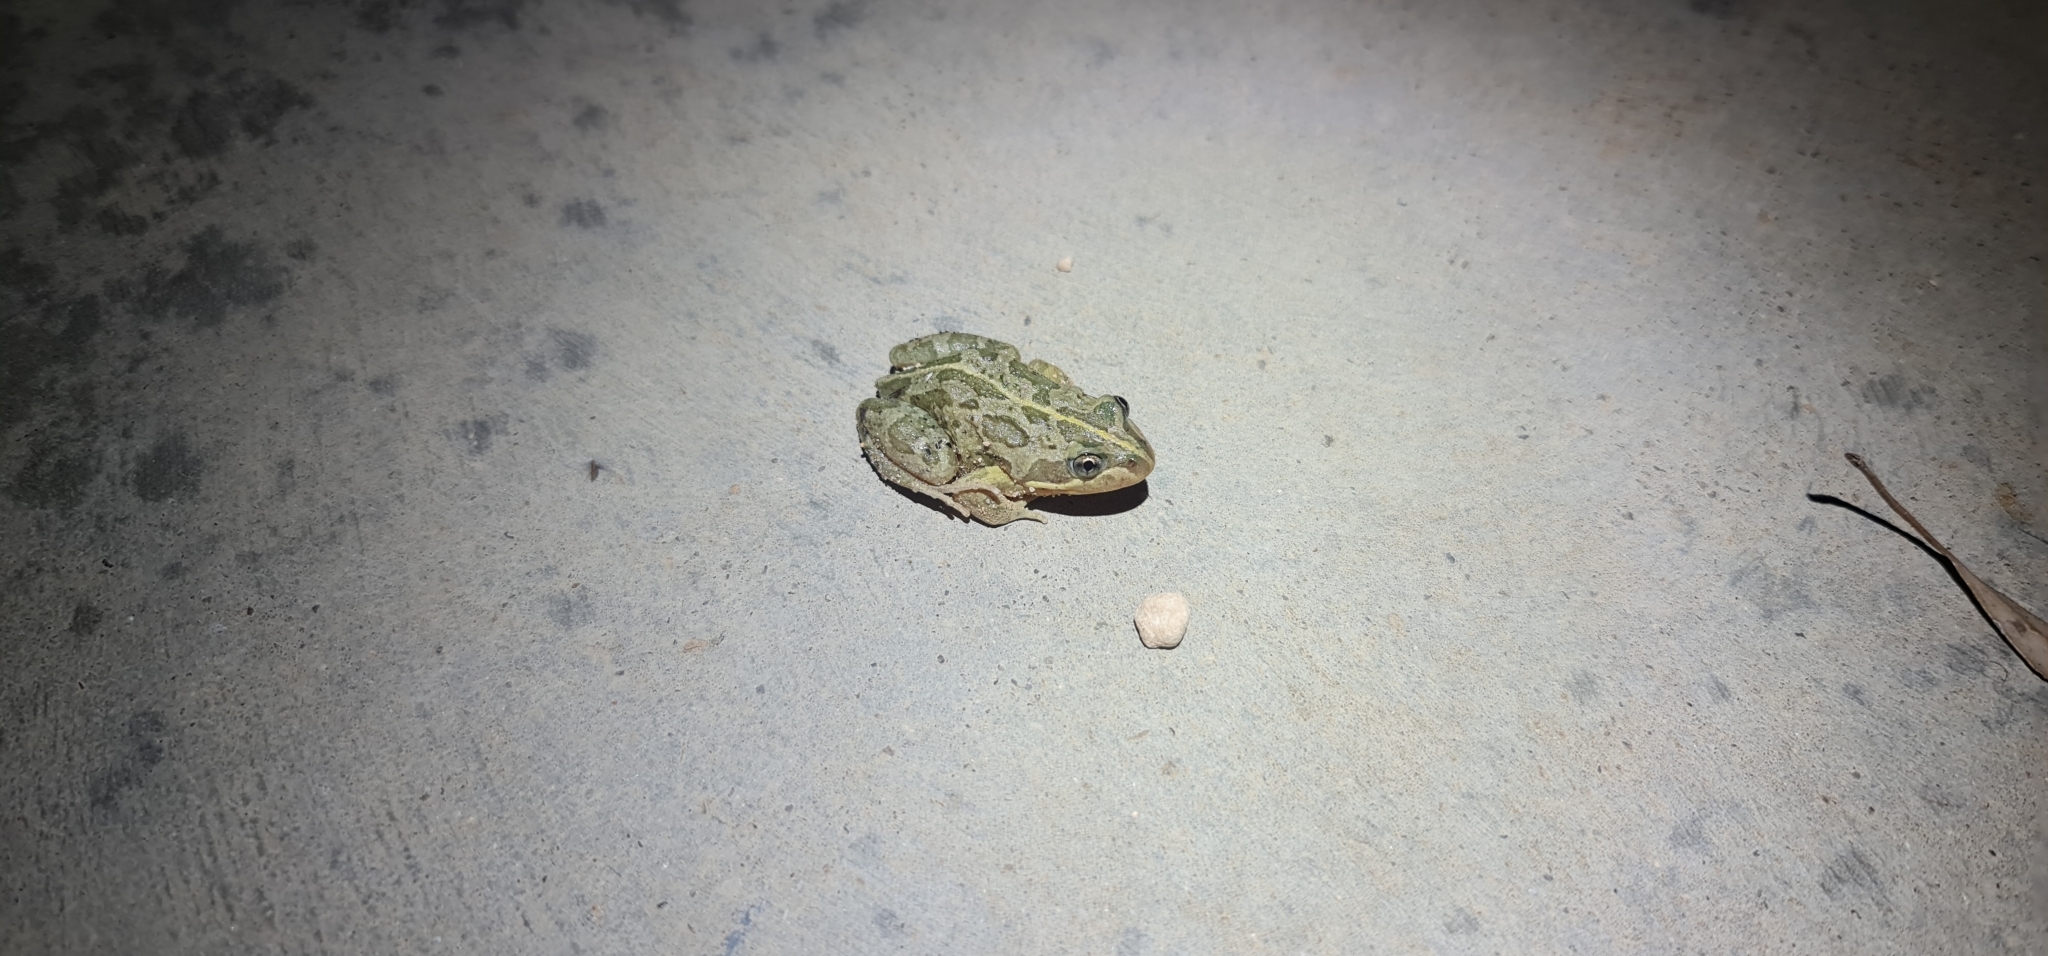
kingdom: Animalia
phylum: Chordata
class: Amphibia
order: Anura
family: Limnodynastidae
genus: Limnodynastes
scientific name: Limnodynastes tasmaniensis
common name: Spotted marsh frog
